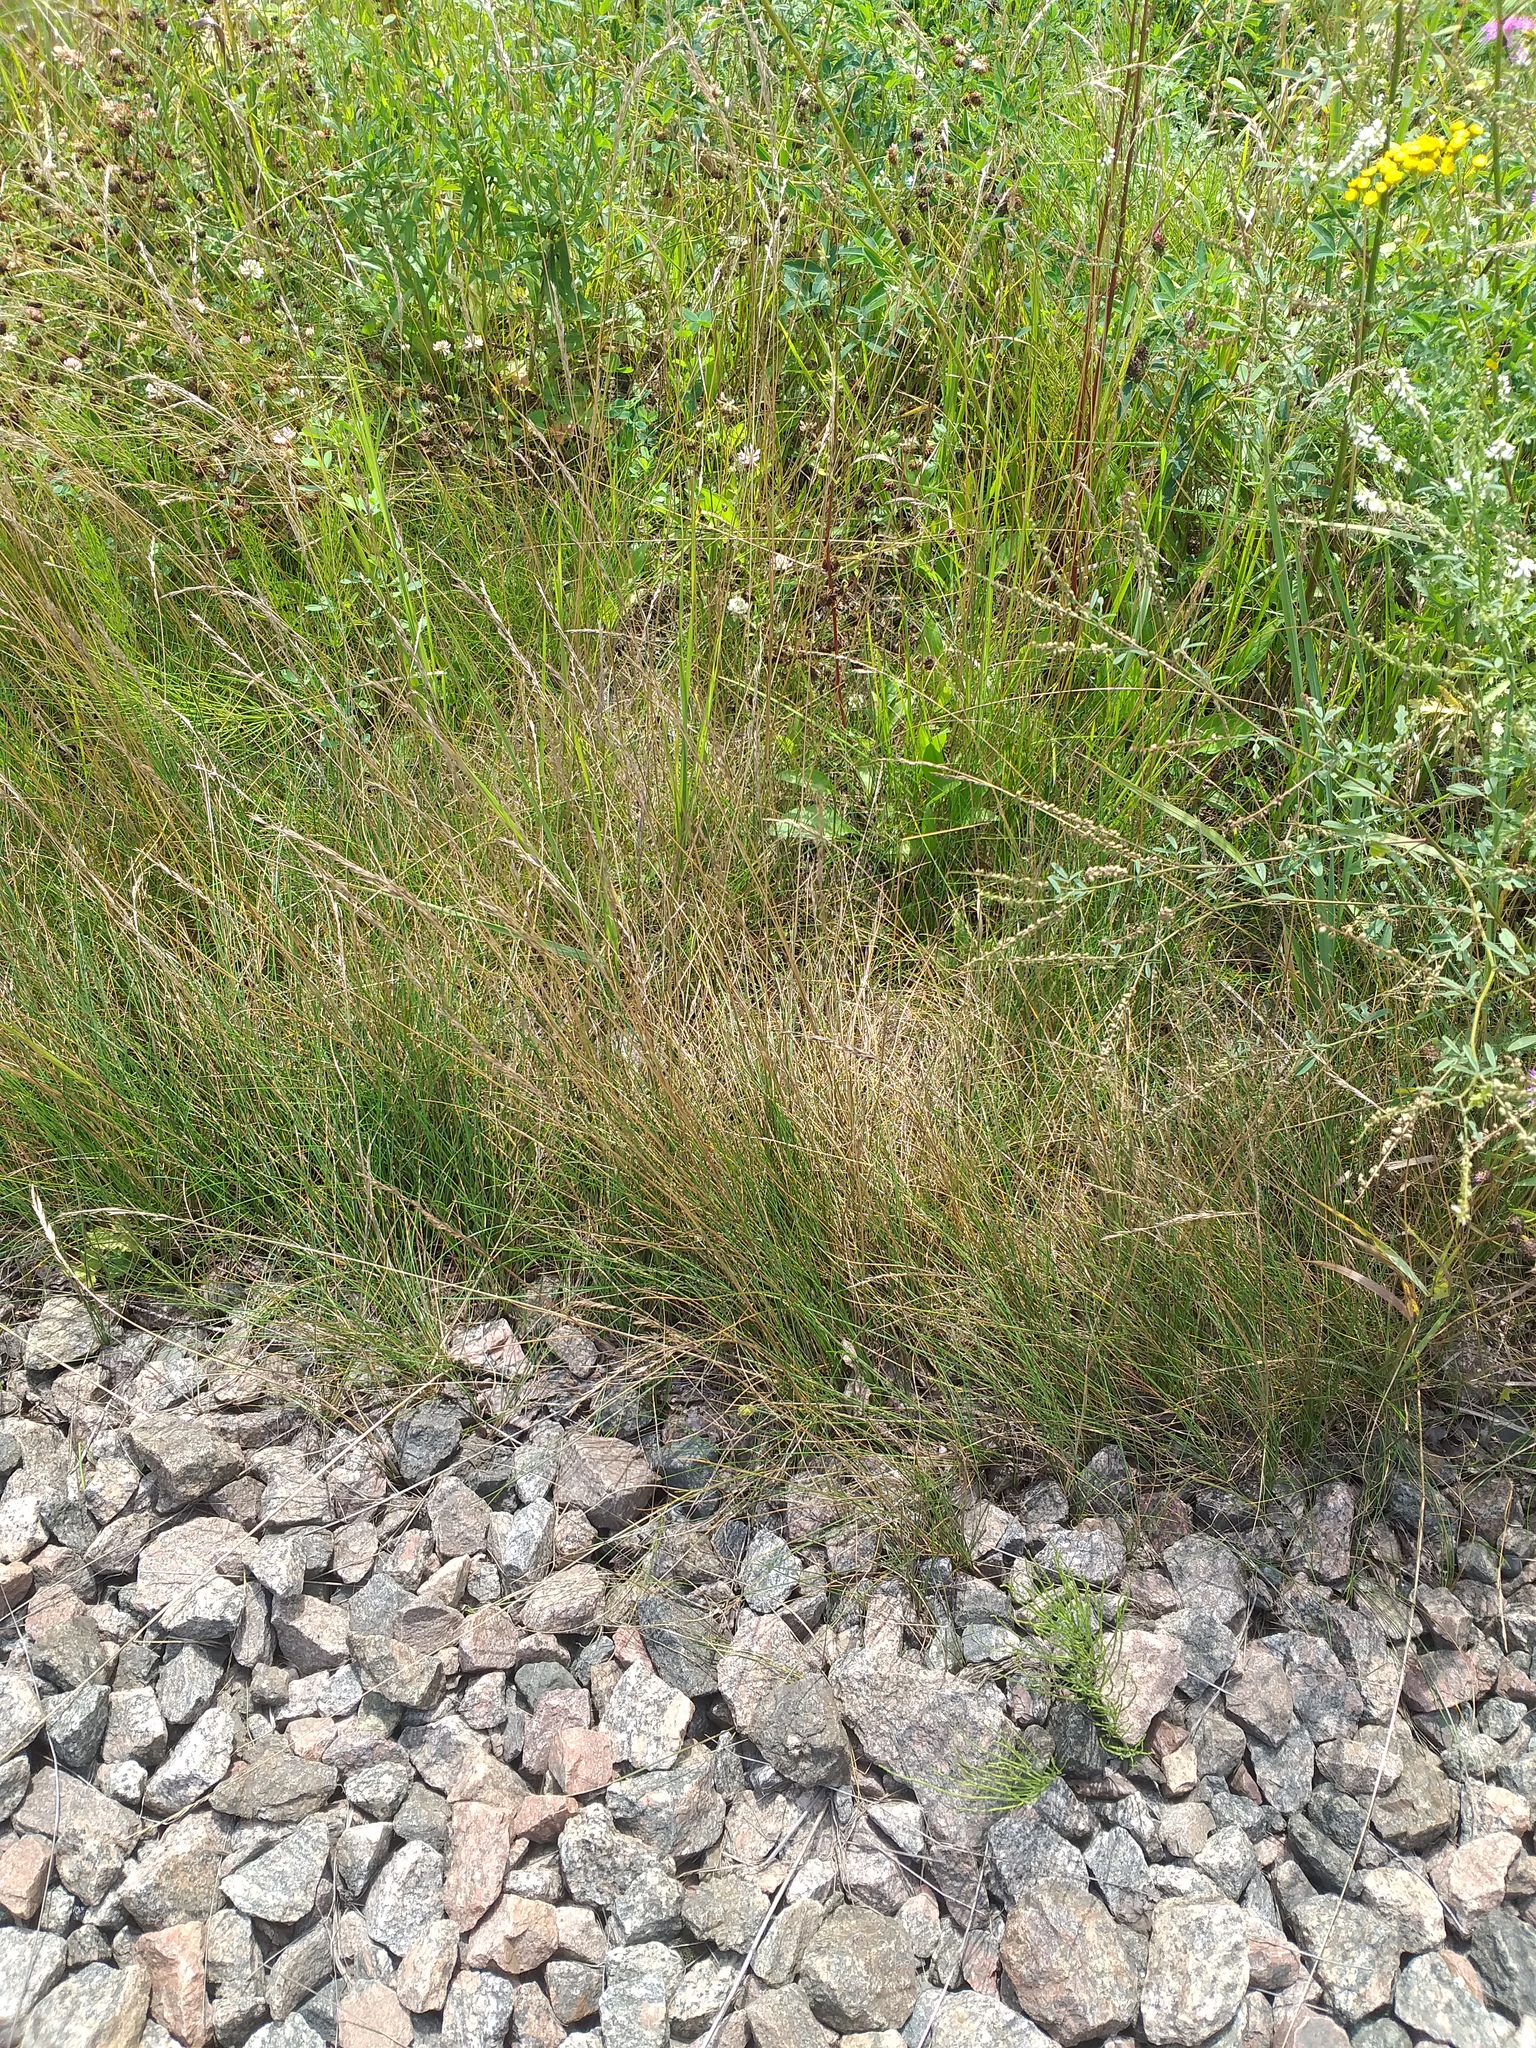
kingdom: Plantae
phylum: Tracheophyta
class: Liliopsida
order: Poales
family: Poaceae
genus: Festuca
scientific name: Festuca rubra
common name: Red fescue
